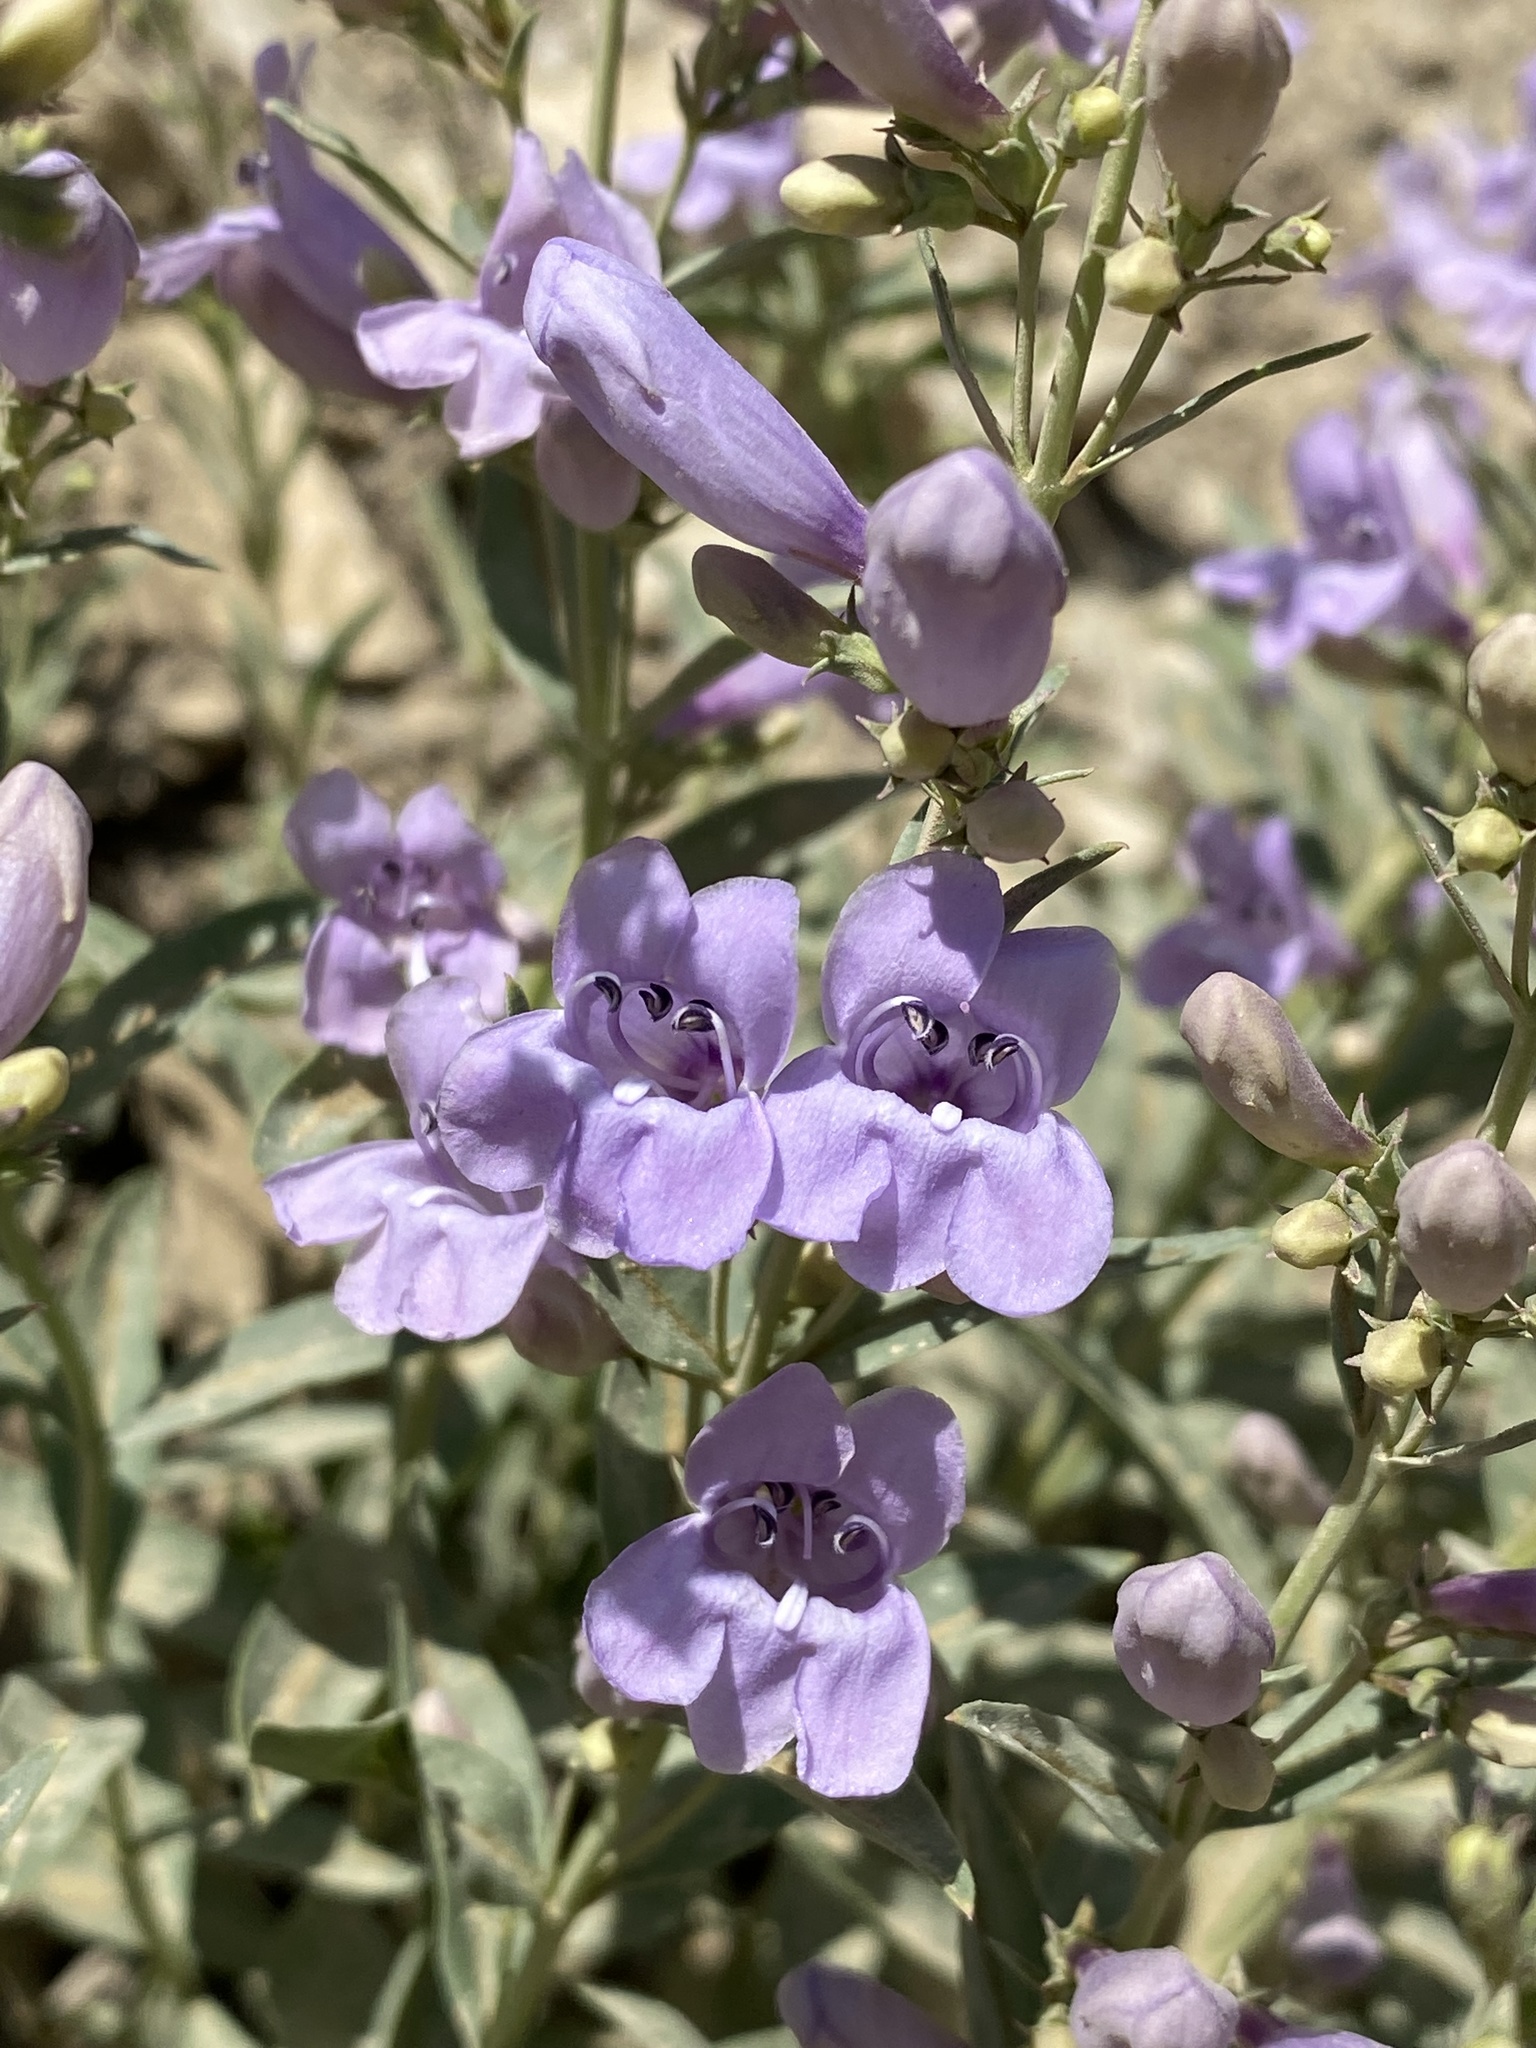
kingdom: Plantae
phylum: Tracheophyta
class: Magnoliopsida
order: Lamiales
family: Plantaginaceae
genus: Penstemon
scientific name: Penstemon platyphyllus
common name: Broadleaf penstemon
